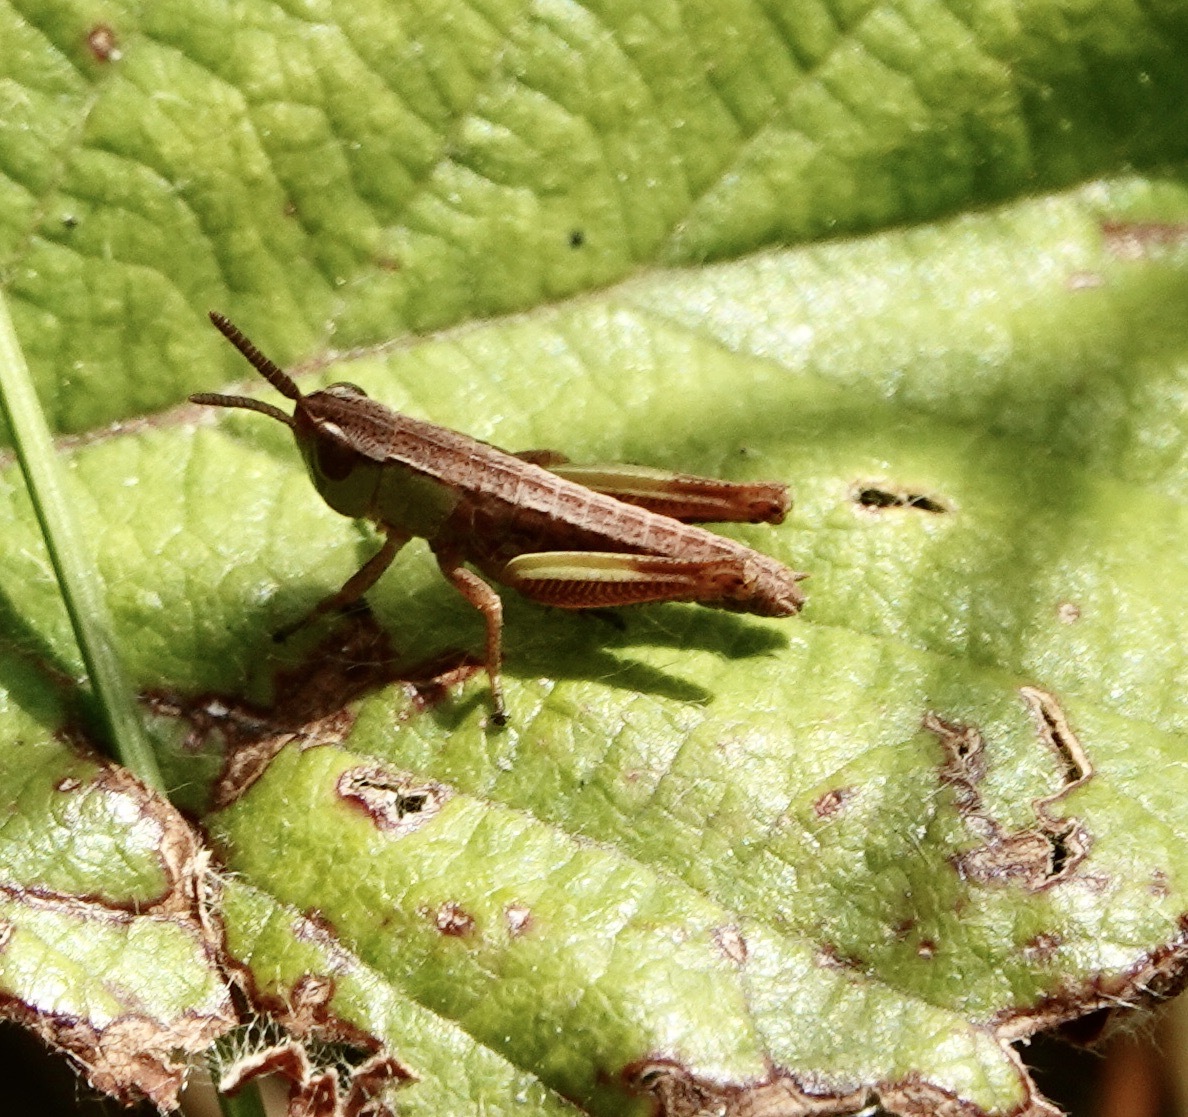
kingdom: Animalia
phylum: Arthropoda
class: Insecta
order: Orthoptera
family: Acrididae
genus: Chorthippus
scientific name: Chorthippus albomarginatus
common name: Lesser marsh grasshopper
